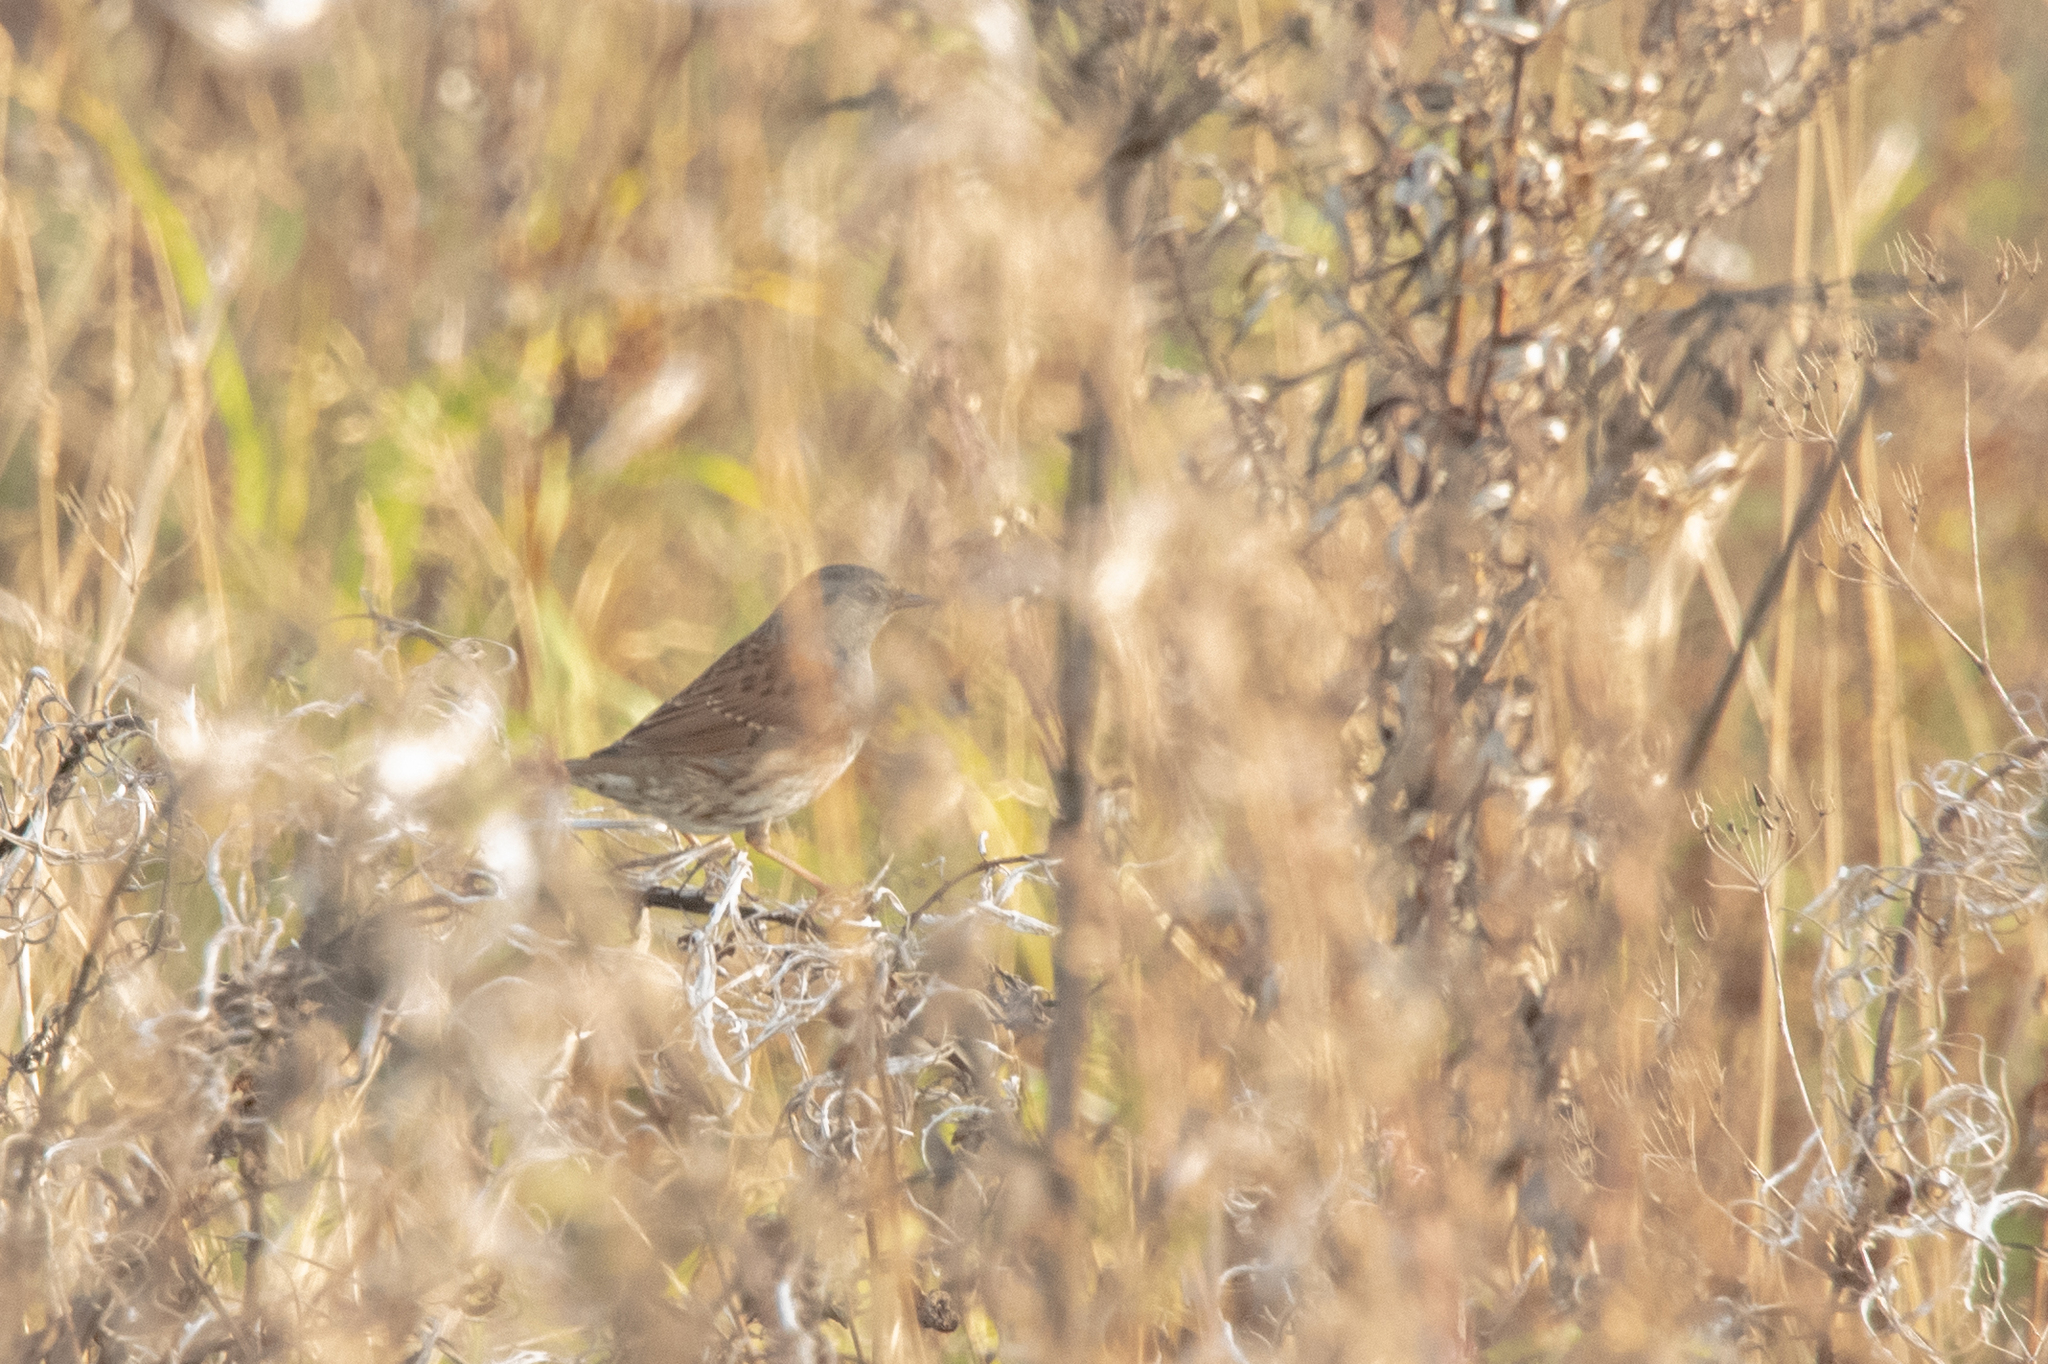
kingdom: Animalia
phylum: Chordata
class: Aves
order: Passeriformes
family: Prunellidae
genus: Prunella
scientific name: Prunella modularis
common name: Dunnock
